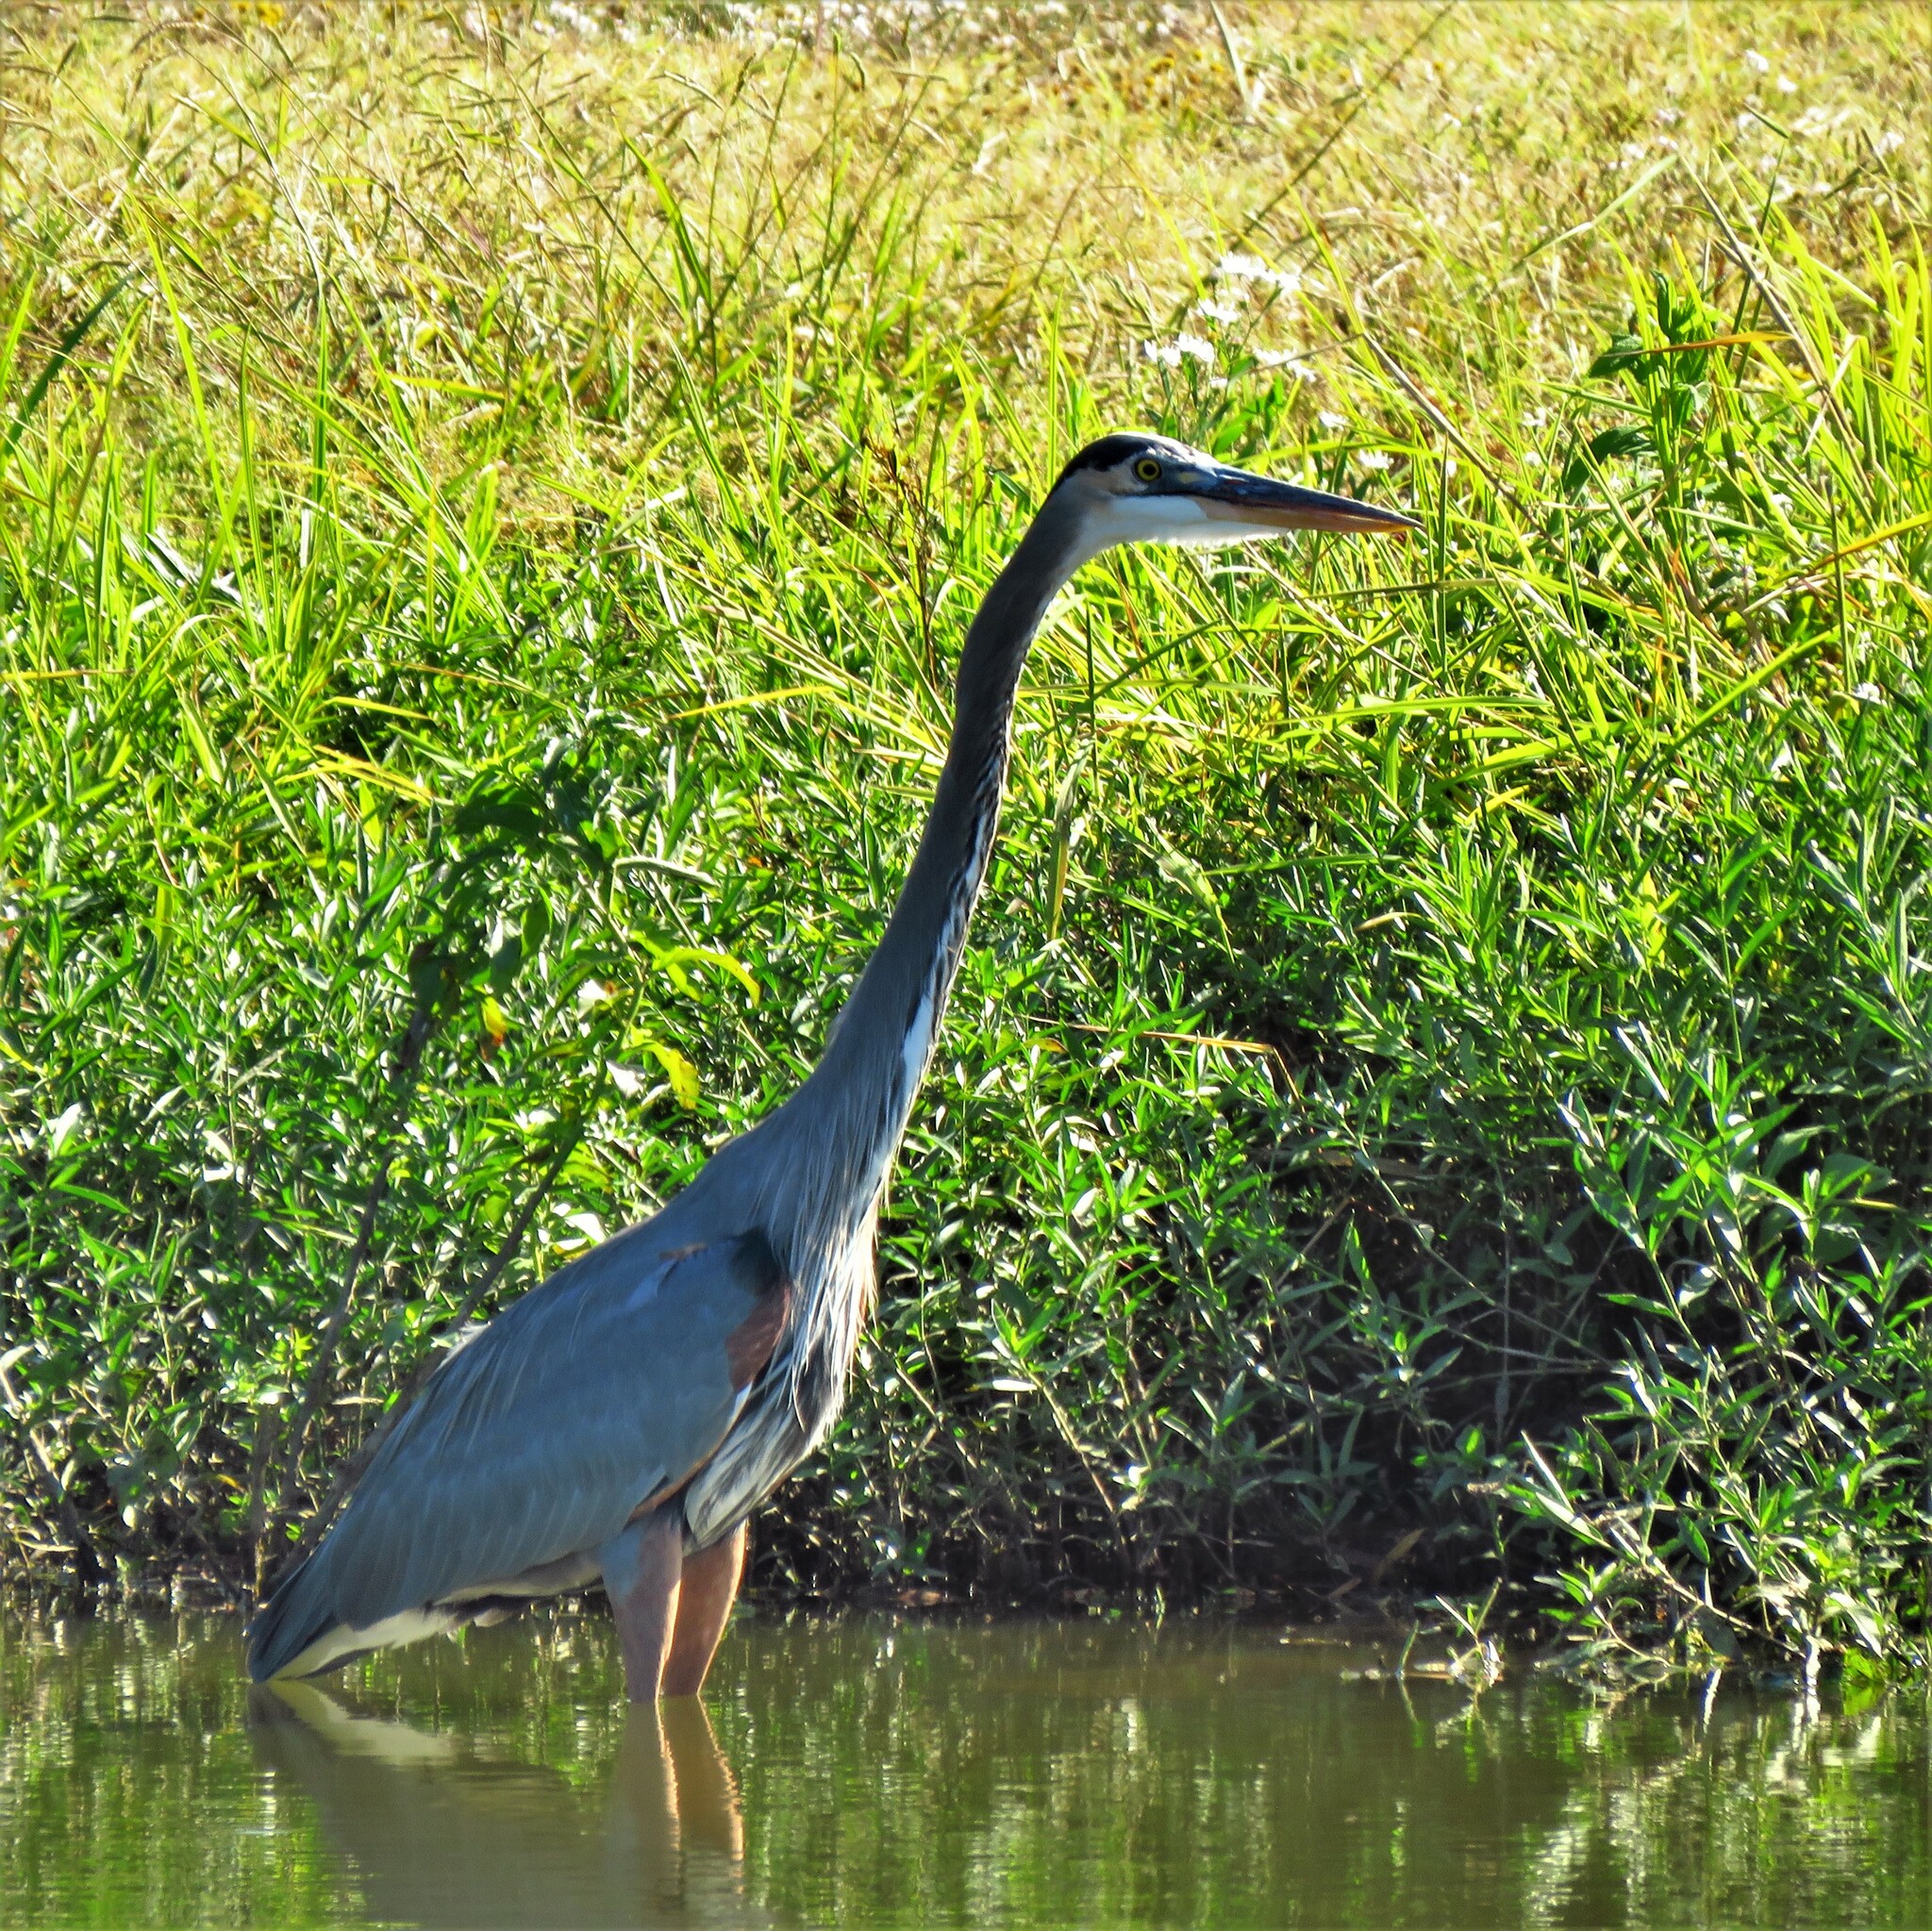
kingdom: Animalia
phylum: Chordata
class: Aves
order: Pelecaniformes
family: Ardeidae
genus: Ardea
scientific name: Ardea herodias
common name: Great blue heron
